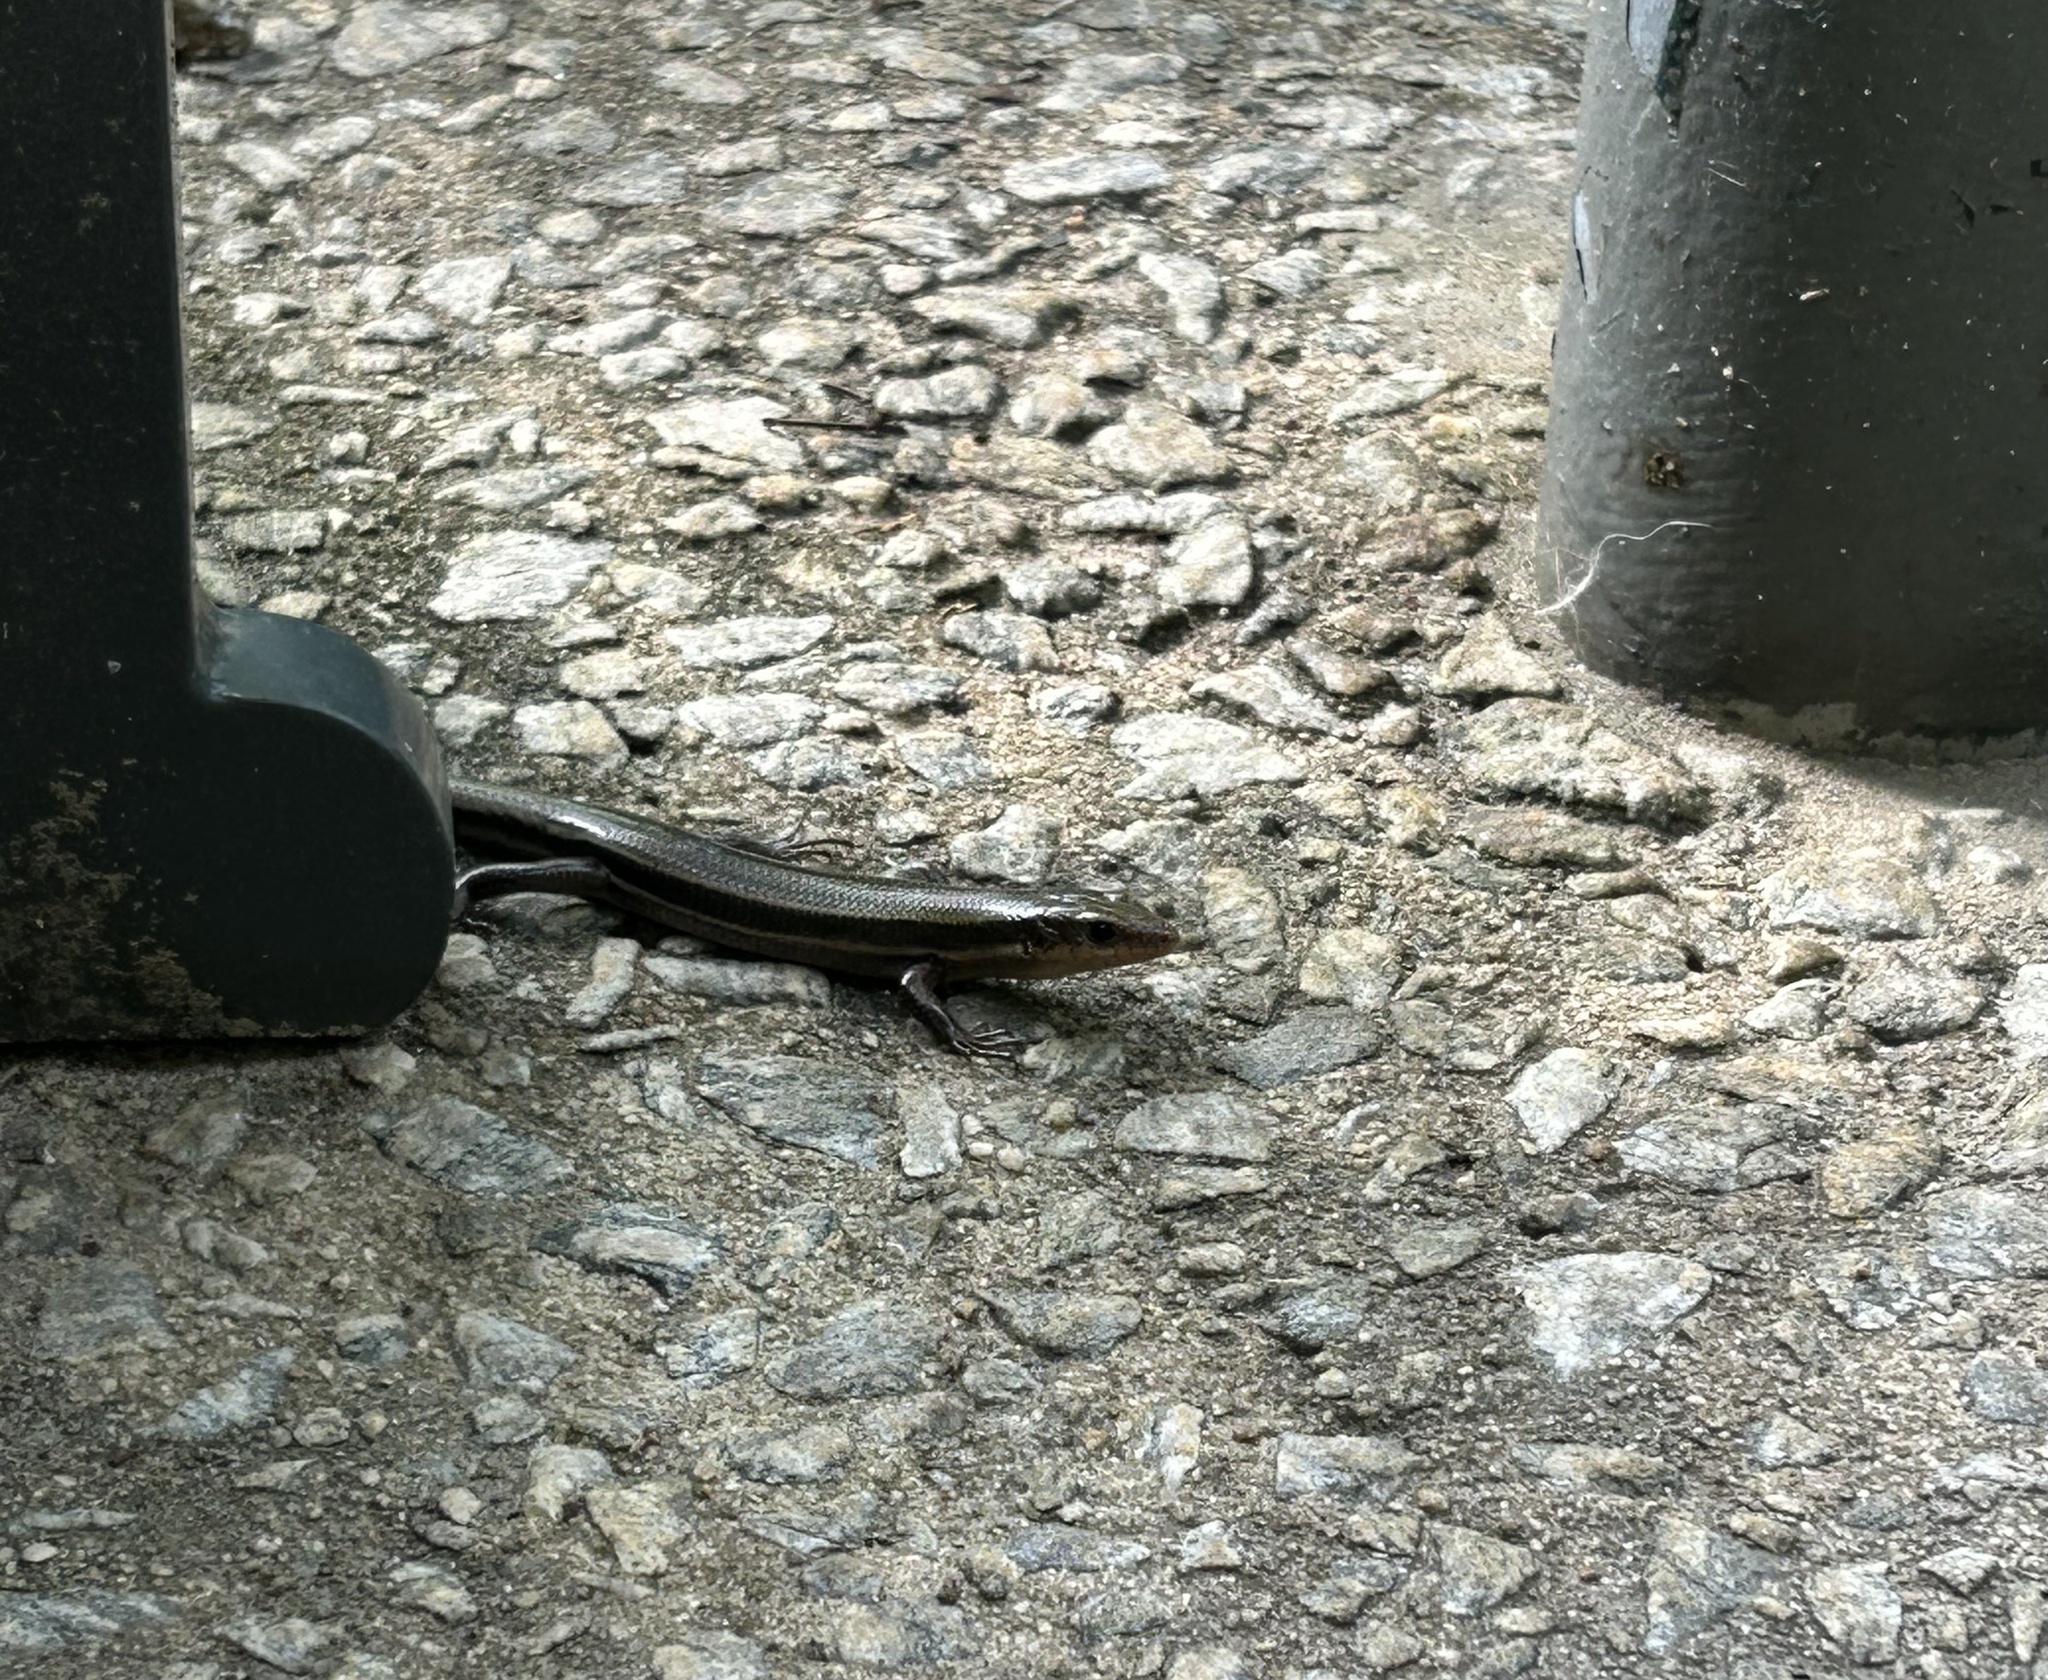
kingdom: Animalia
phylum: Chordata
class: Squamata
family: Scincidae
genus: Plestiodon
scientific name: Plestiodon fasciatus
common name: Five-lined skink
